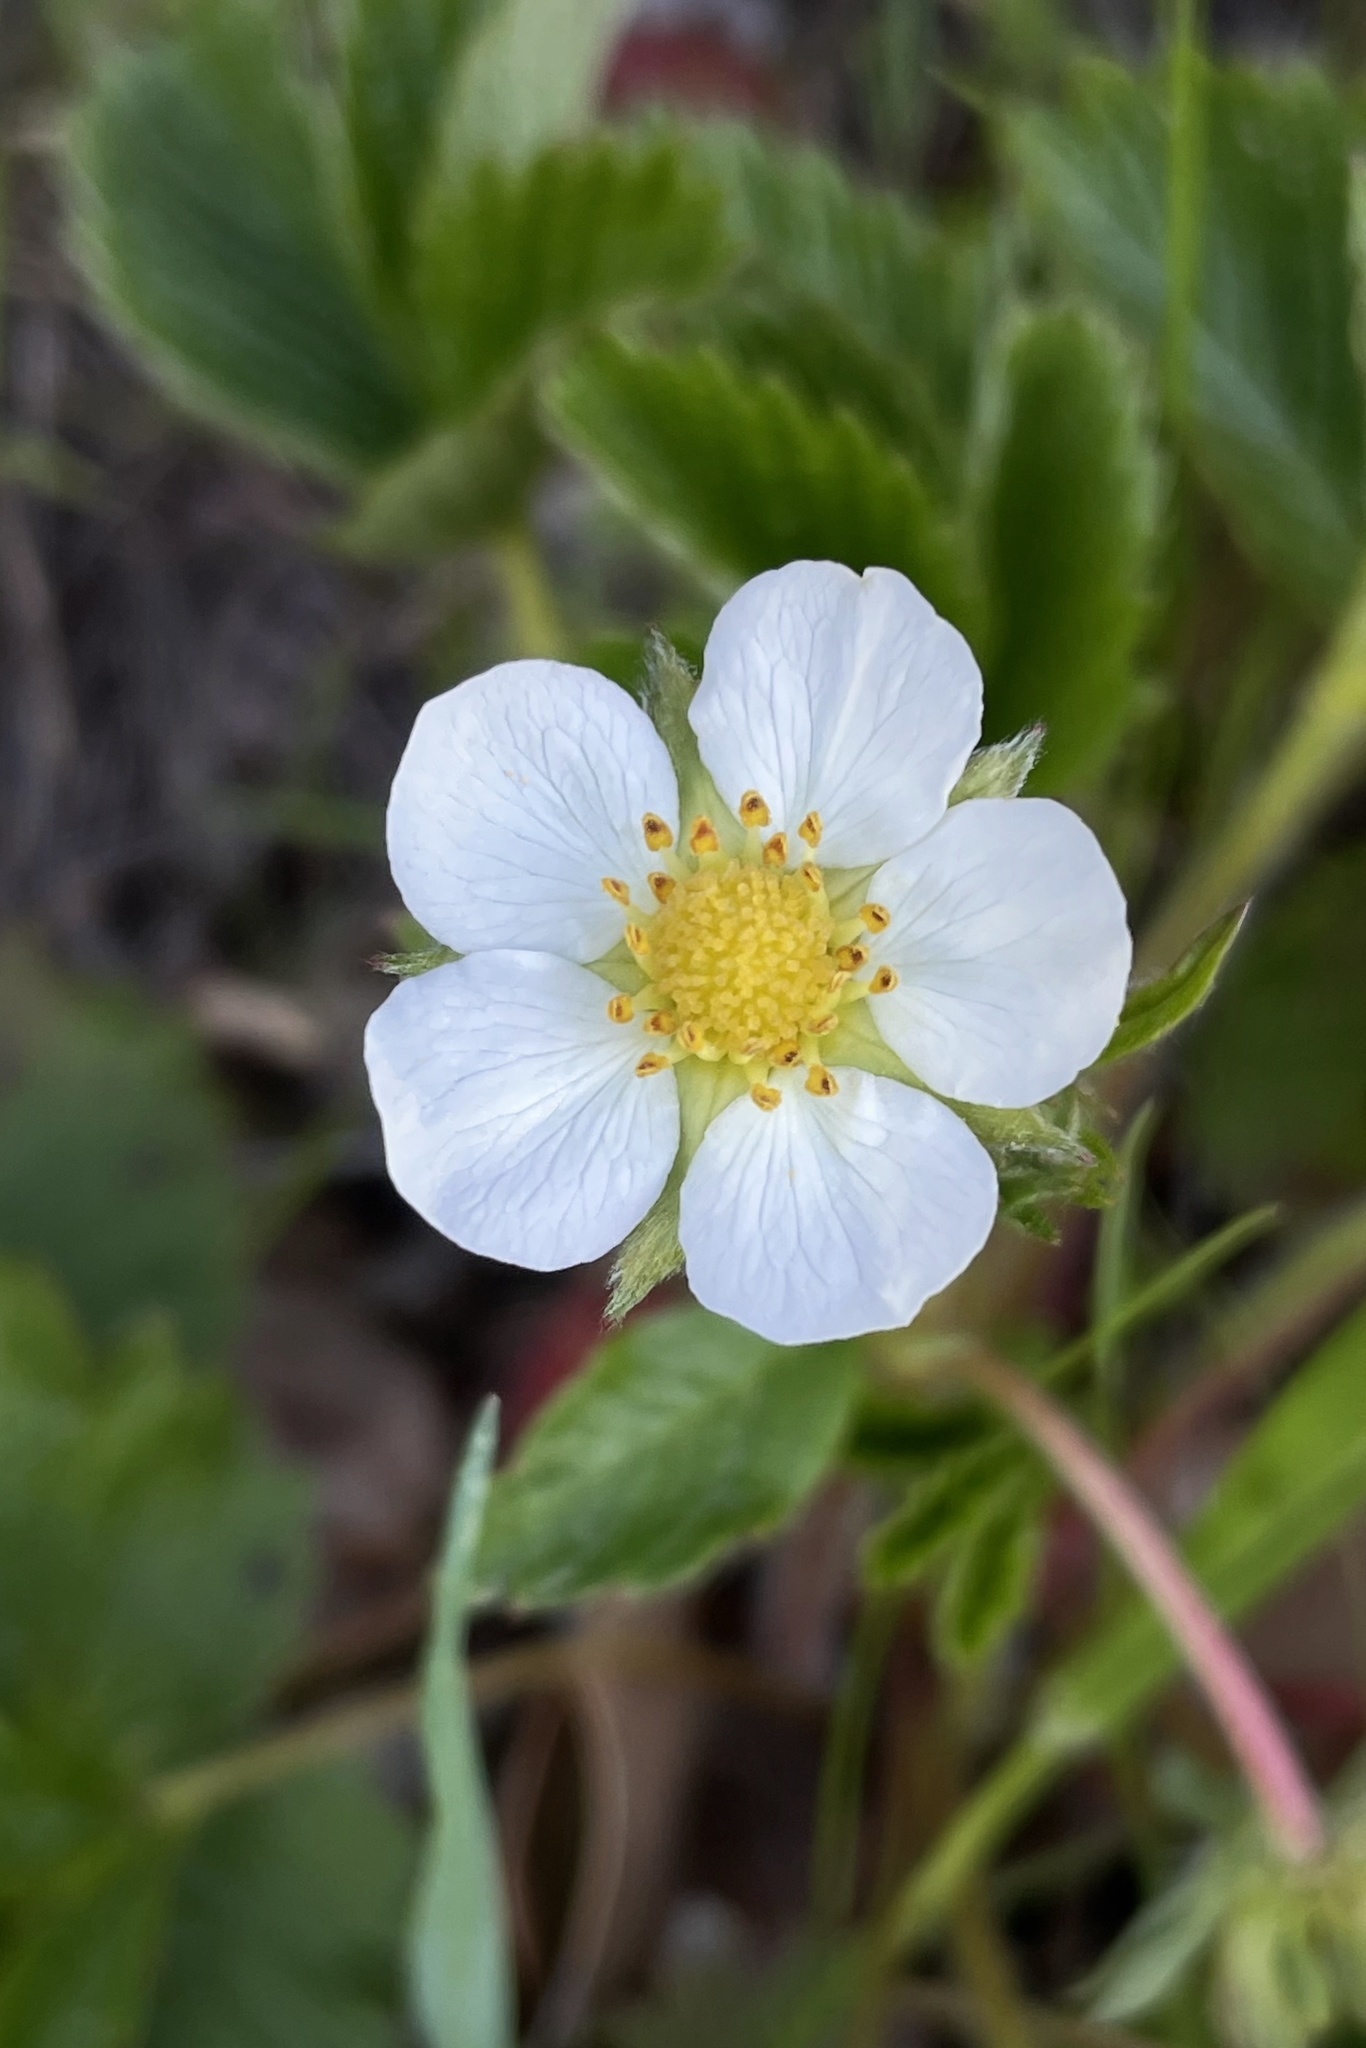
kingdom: Plantae
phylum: Tracheophyta
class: Magnoliopsida
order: Rosales
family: Rosaceae
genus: Fragaria
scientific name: Fragaria vesca
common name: Wild strawberry
